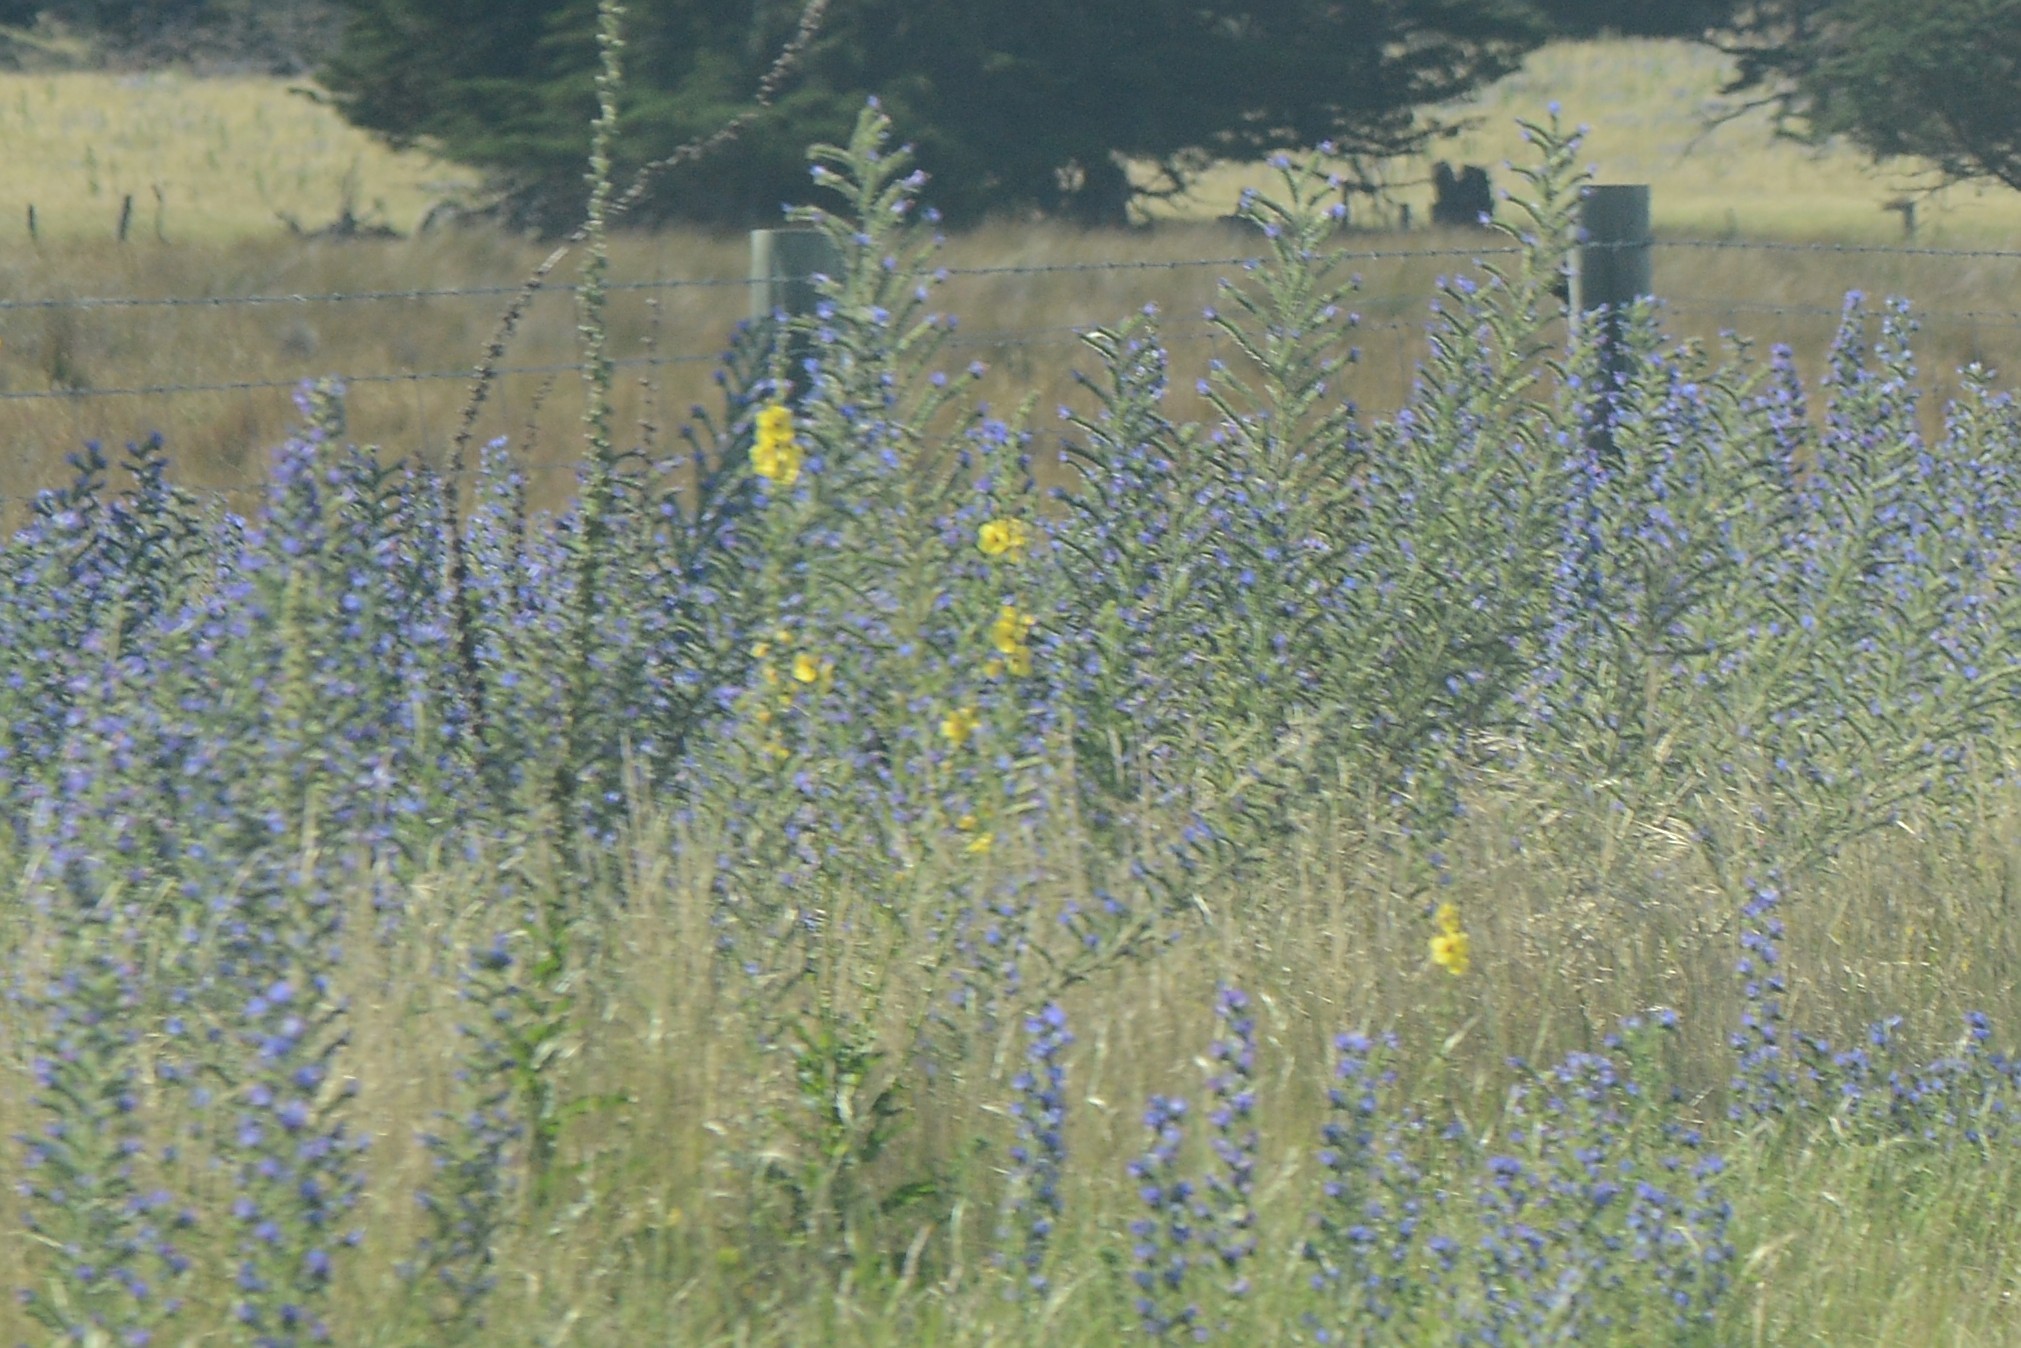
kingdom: Plantae
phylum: Tracheophyta
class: Magnoliopsida
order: Lamiales
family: Scrophulariaceae
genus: Verbascum
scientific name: Verbascum virgatum
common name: Twiggy mullein
